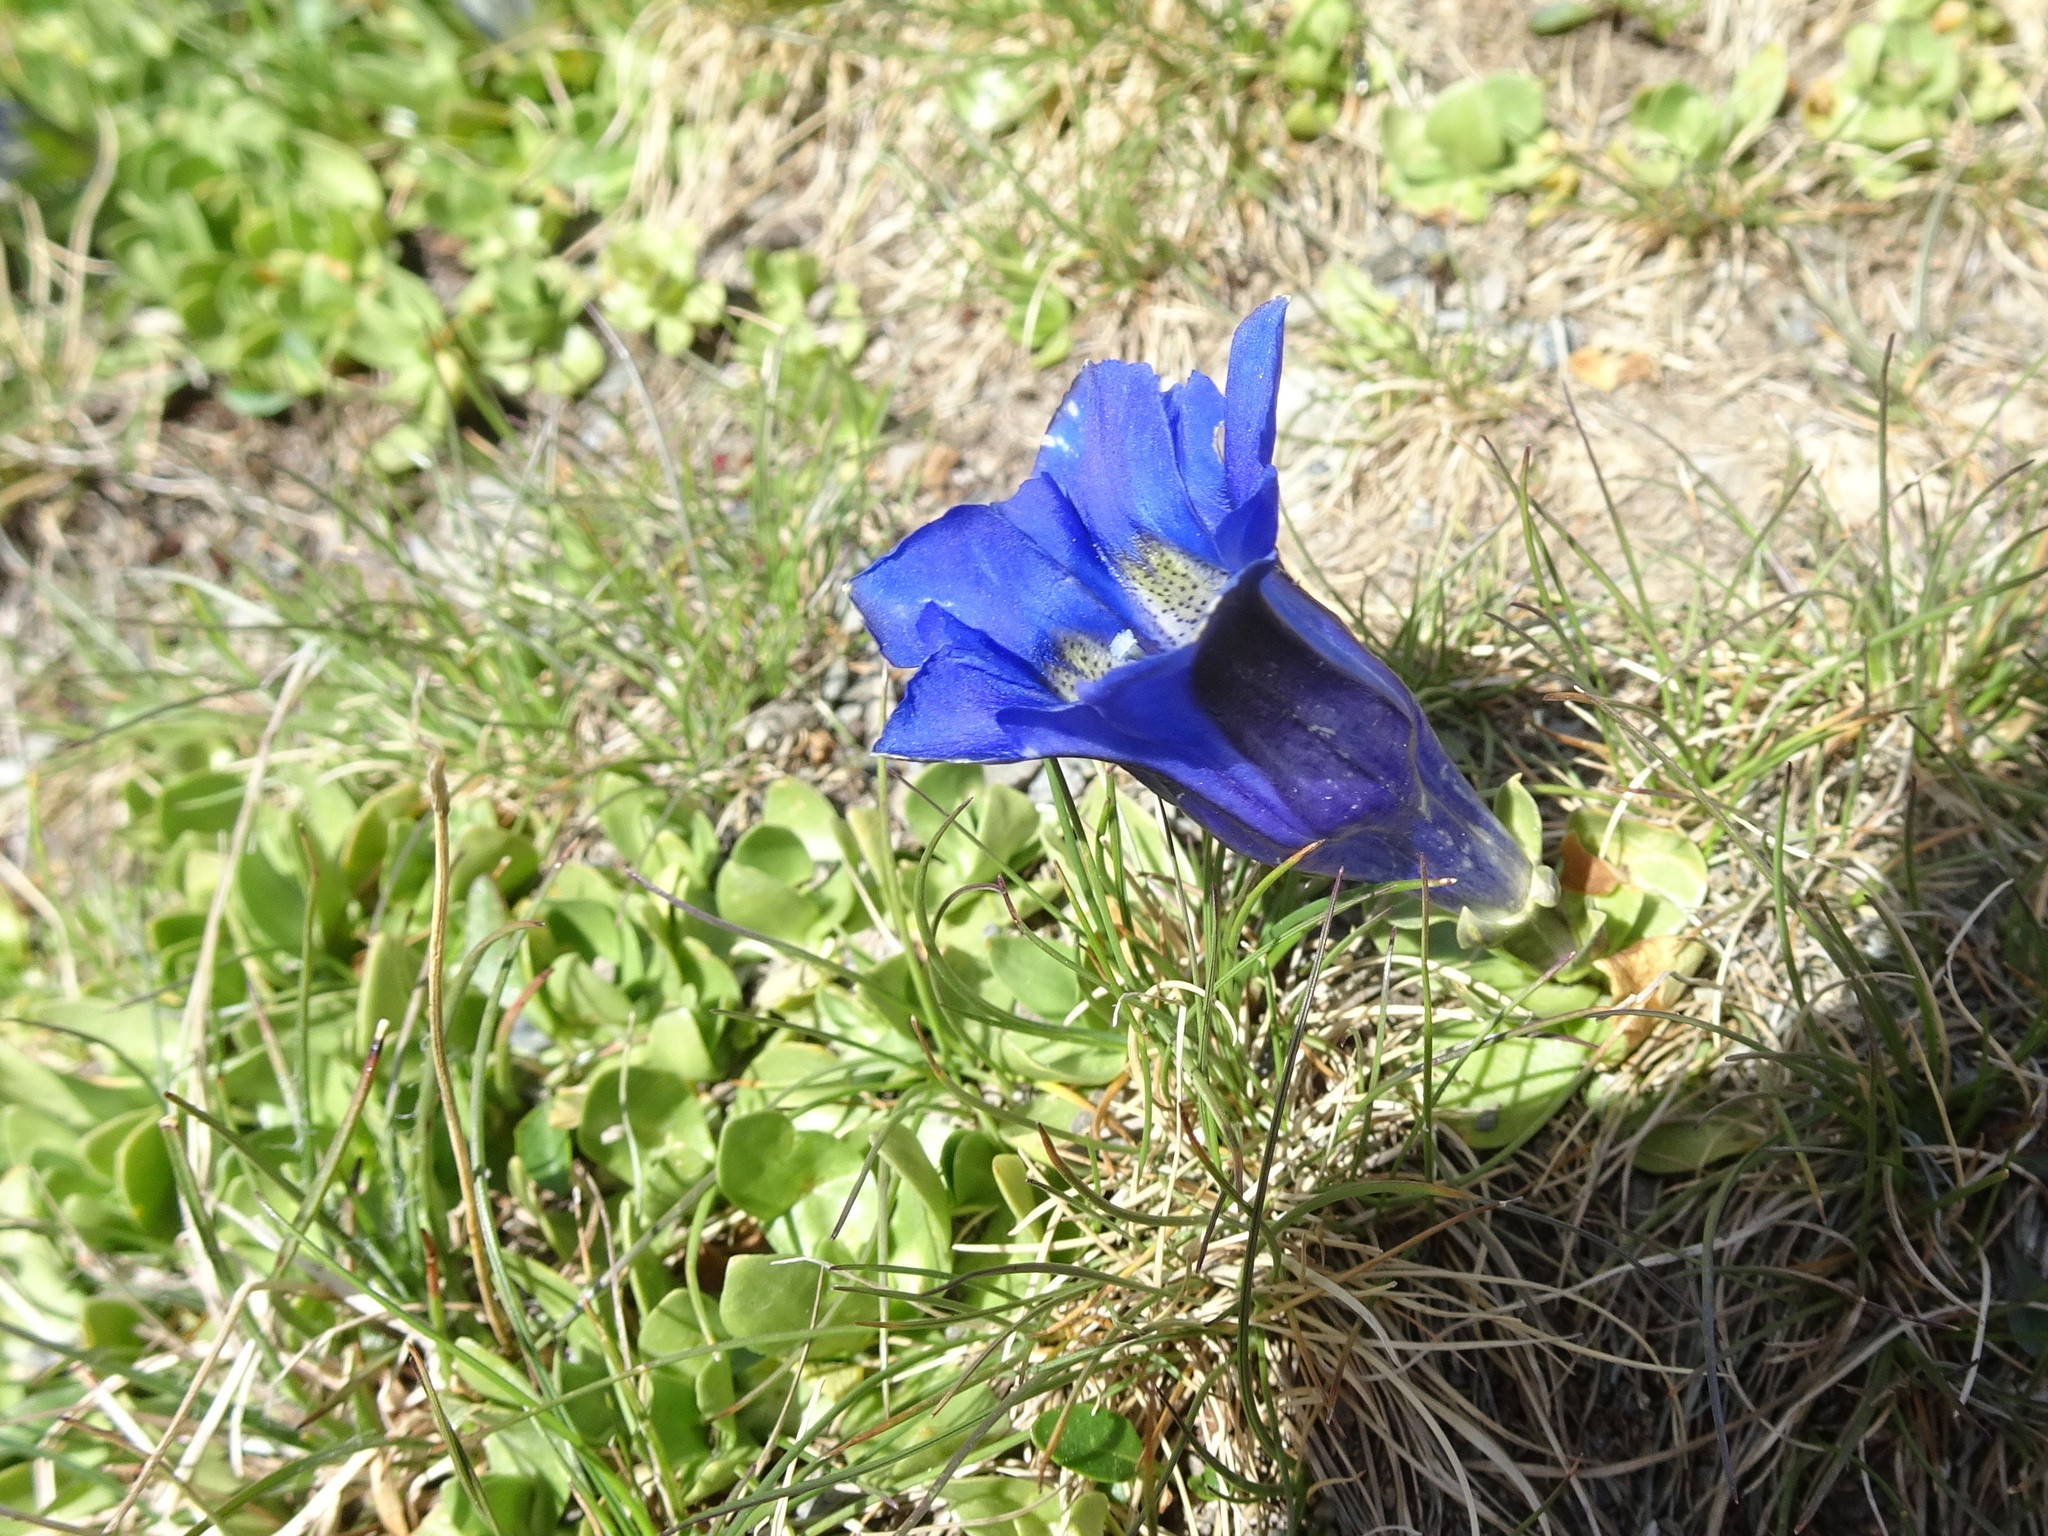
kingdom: Plantae
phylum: Tracheophyta
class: Magnoliopsida
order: Gentianales
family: Gentianaceae
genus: Gentiana
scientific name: Gentiana alpina
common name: Southern gentian
